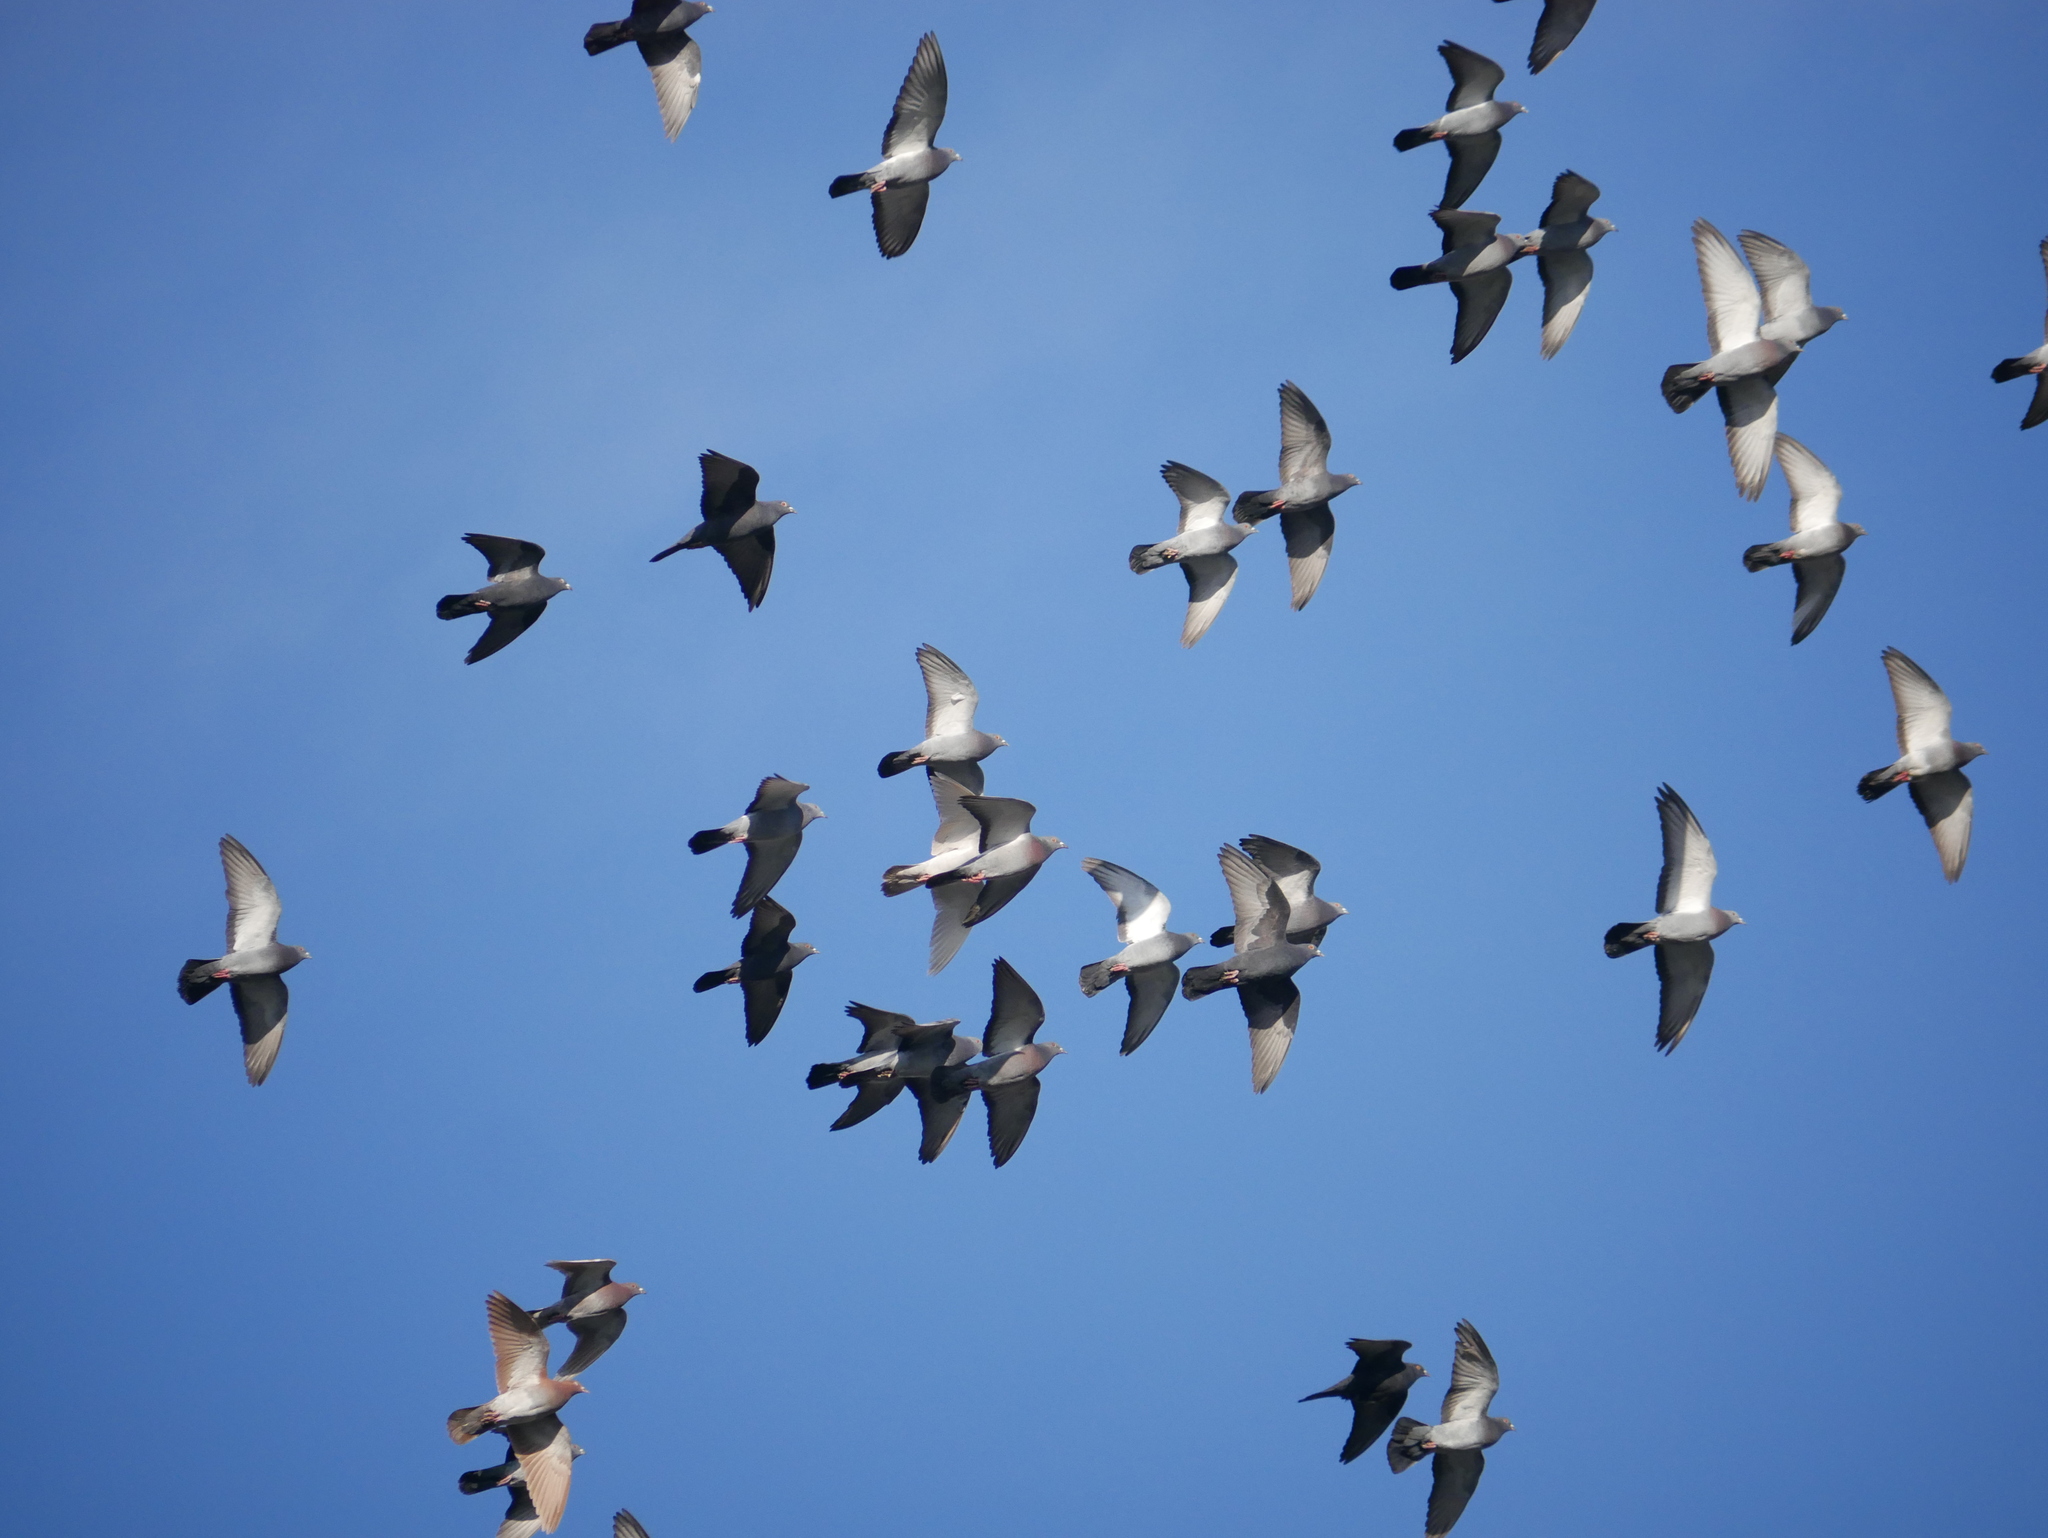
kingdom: Animalia
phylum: Chordata
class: Aves
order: Columbiformes
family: Columbidae
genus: Columba
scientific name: Columba livia
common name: Rock pigeon
